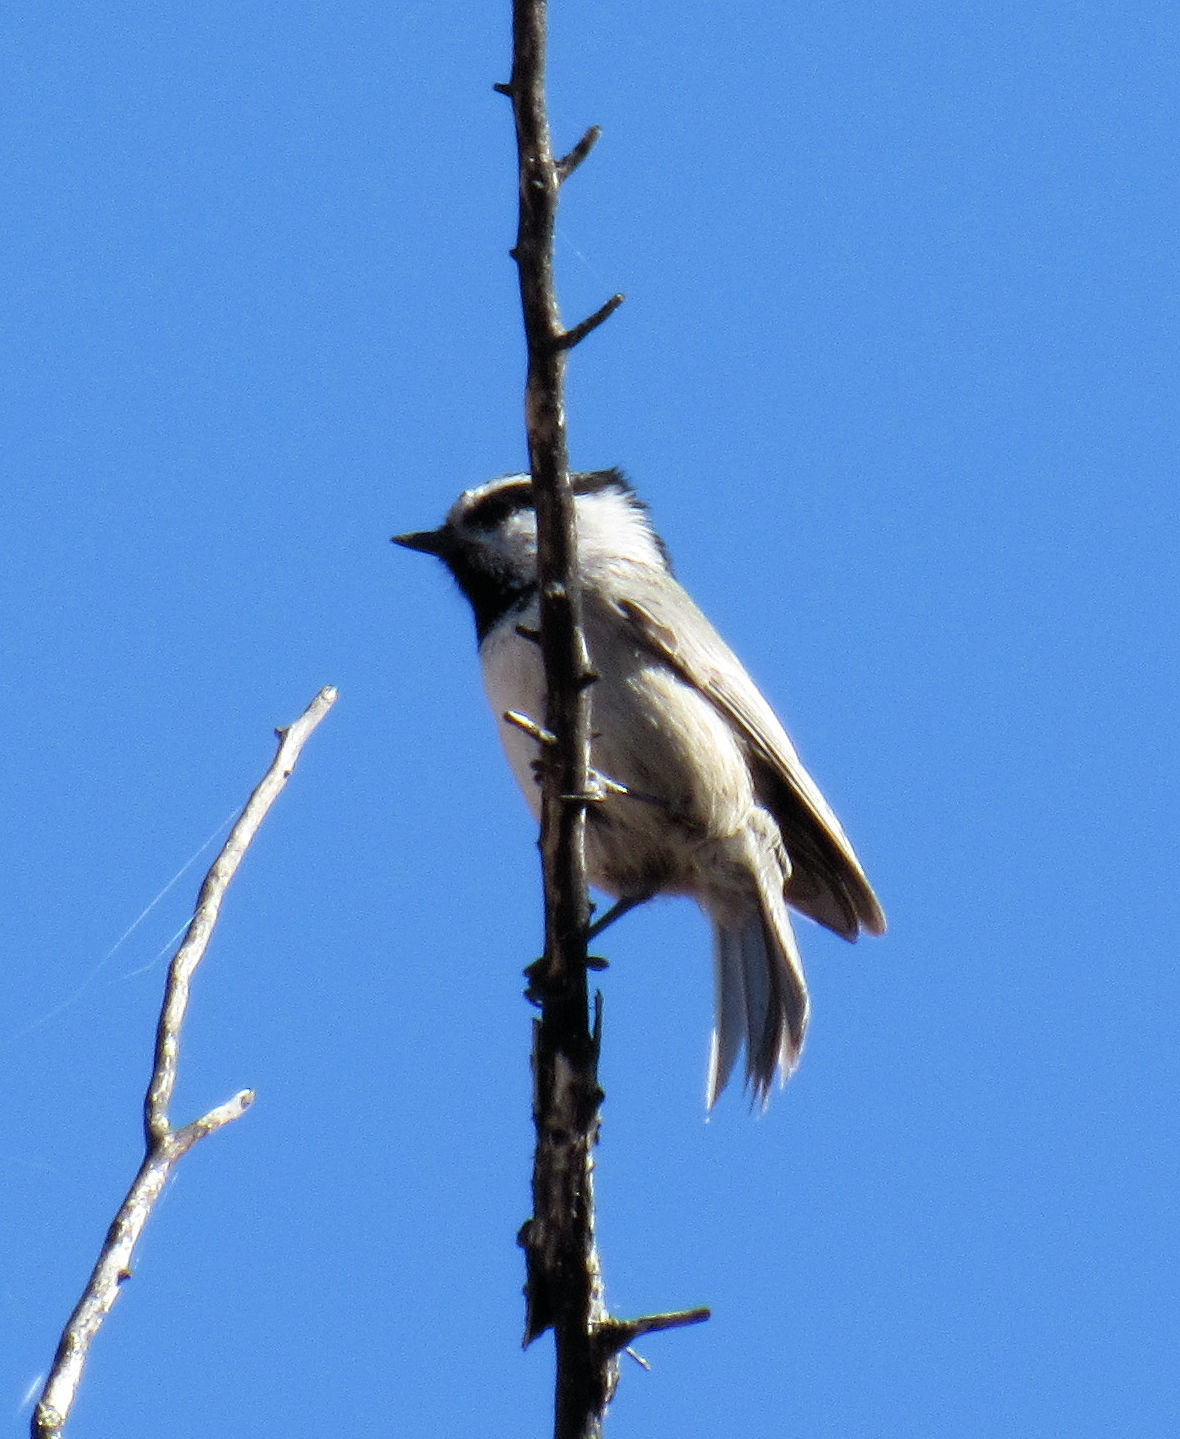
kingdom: Animalia
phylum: Chordata
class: Aves
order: Passeriformes
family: Paridae
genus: Poecile
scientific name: Poecile gambeli
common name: Mountain chickadee
